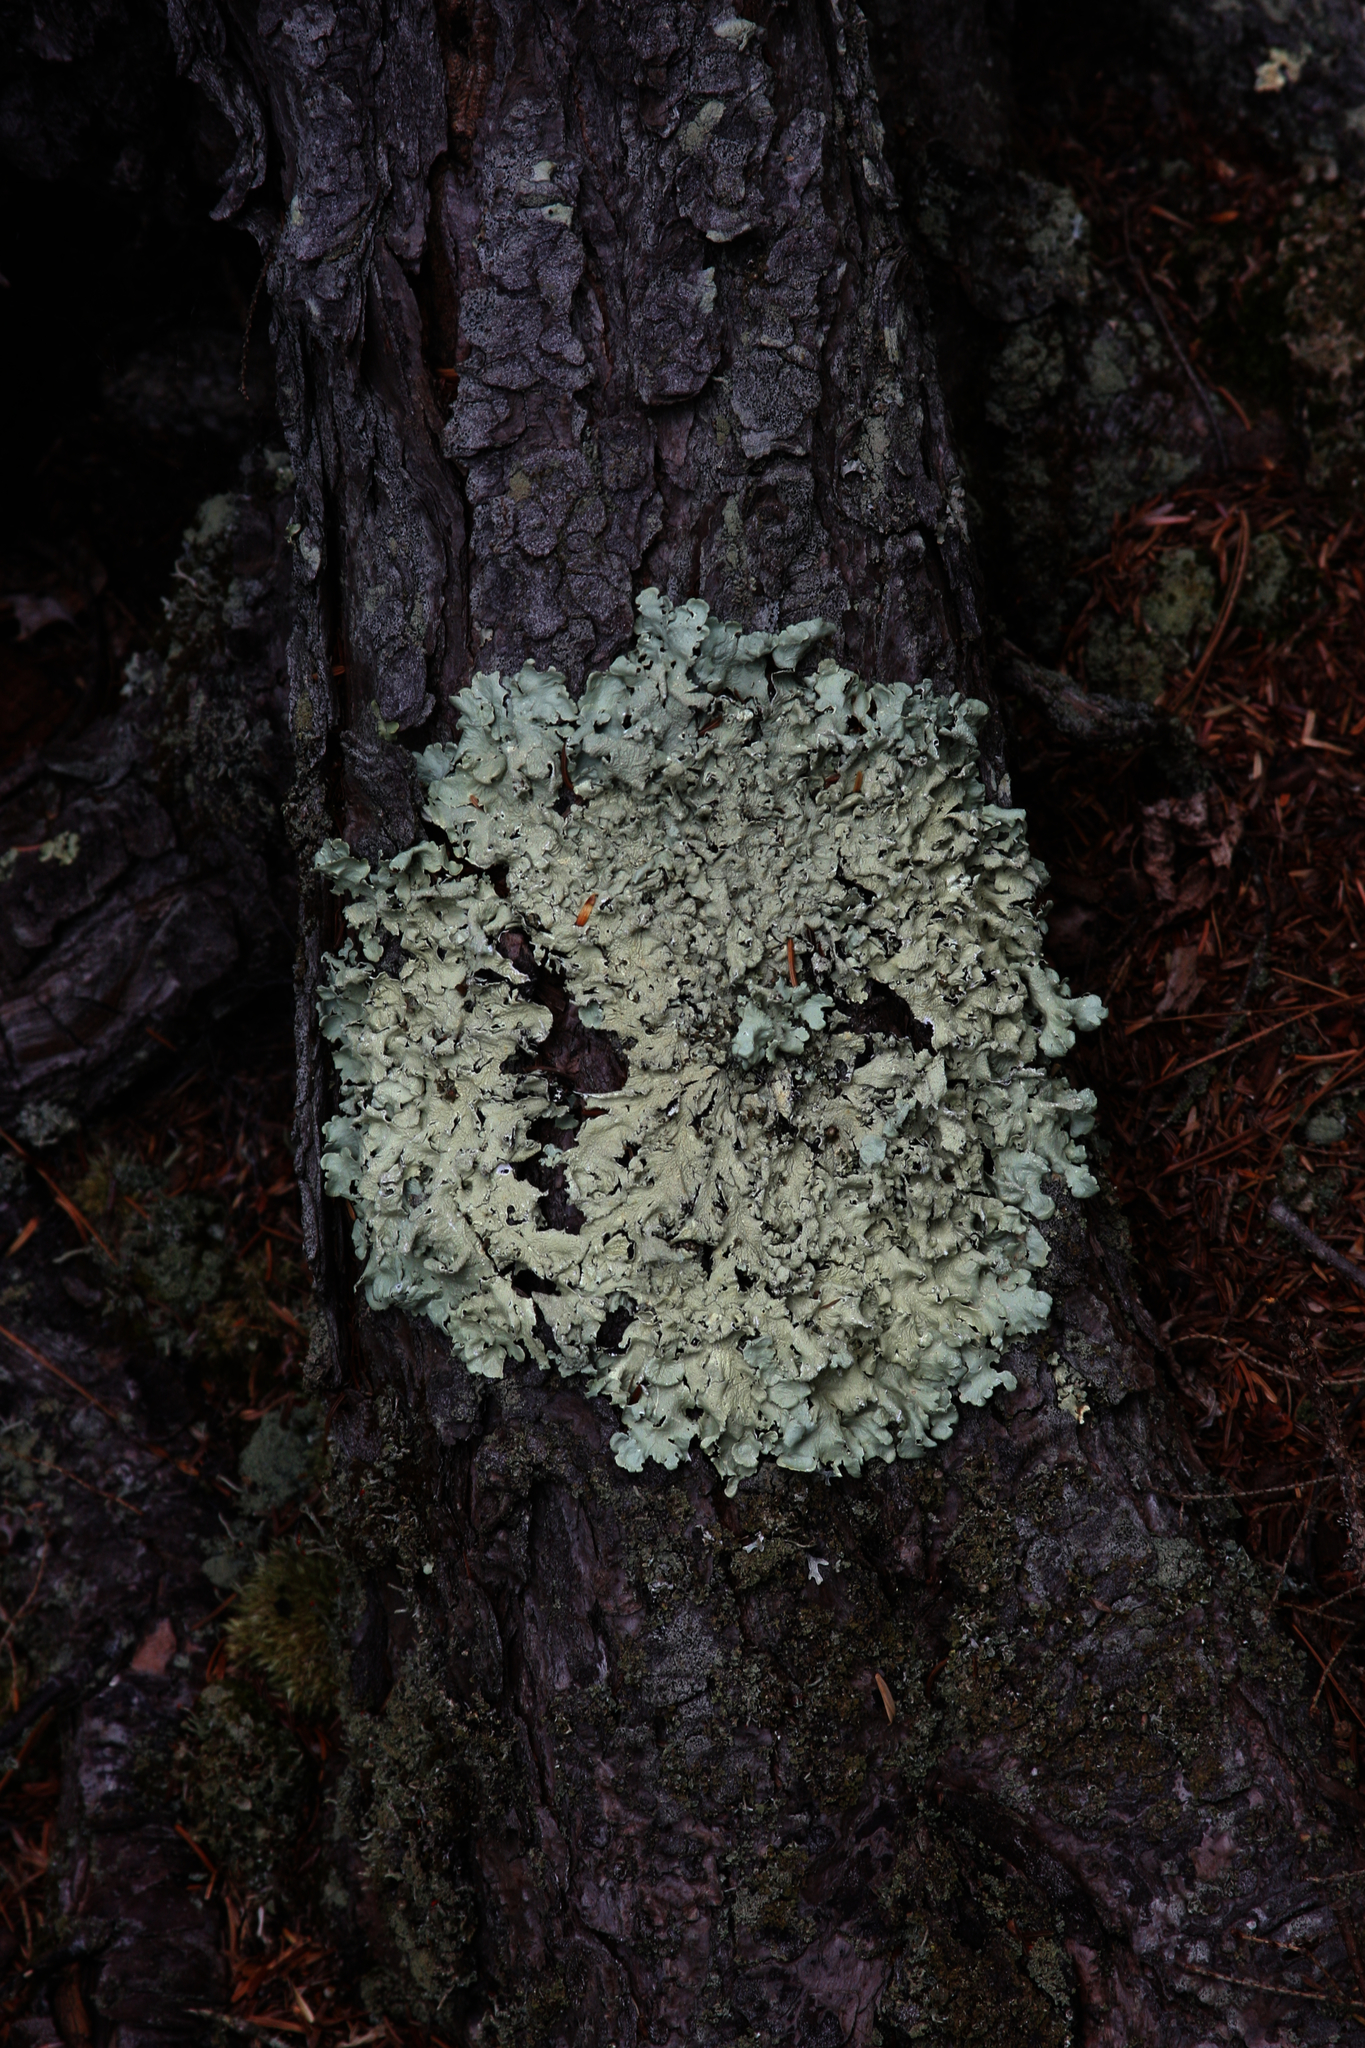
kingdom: Fungi
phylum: Ascomycota
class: Lecanoromycetes
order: Lecanorales
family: Parmeliaceae
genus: Flavoparmelia
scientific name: Flavoparmelia caperata
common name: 40-mile per hour lichen
